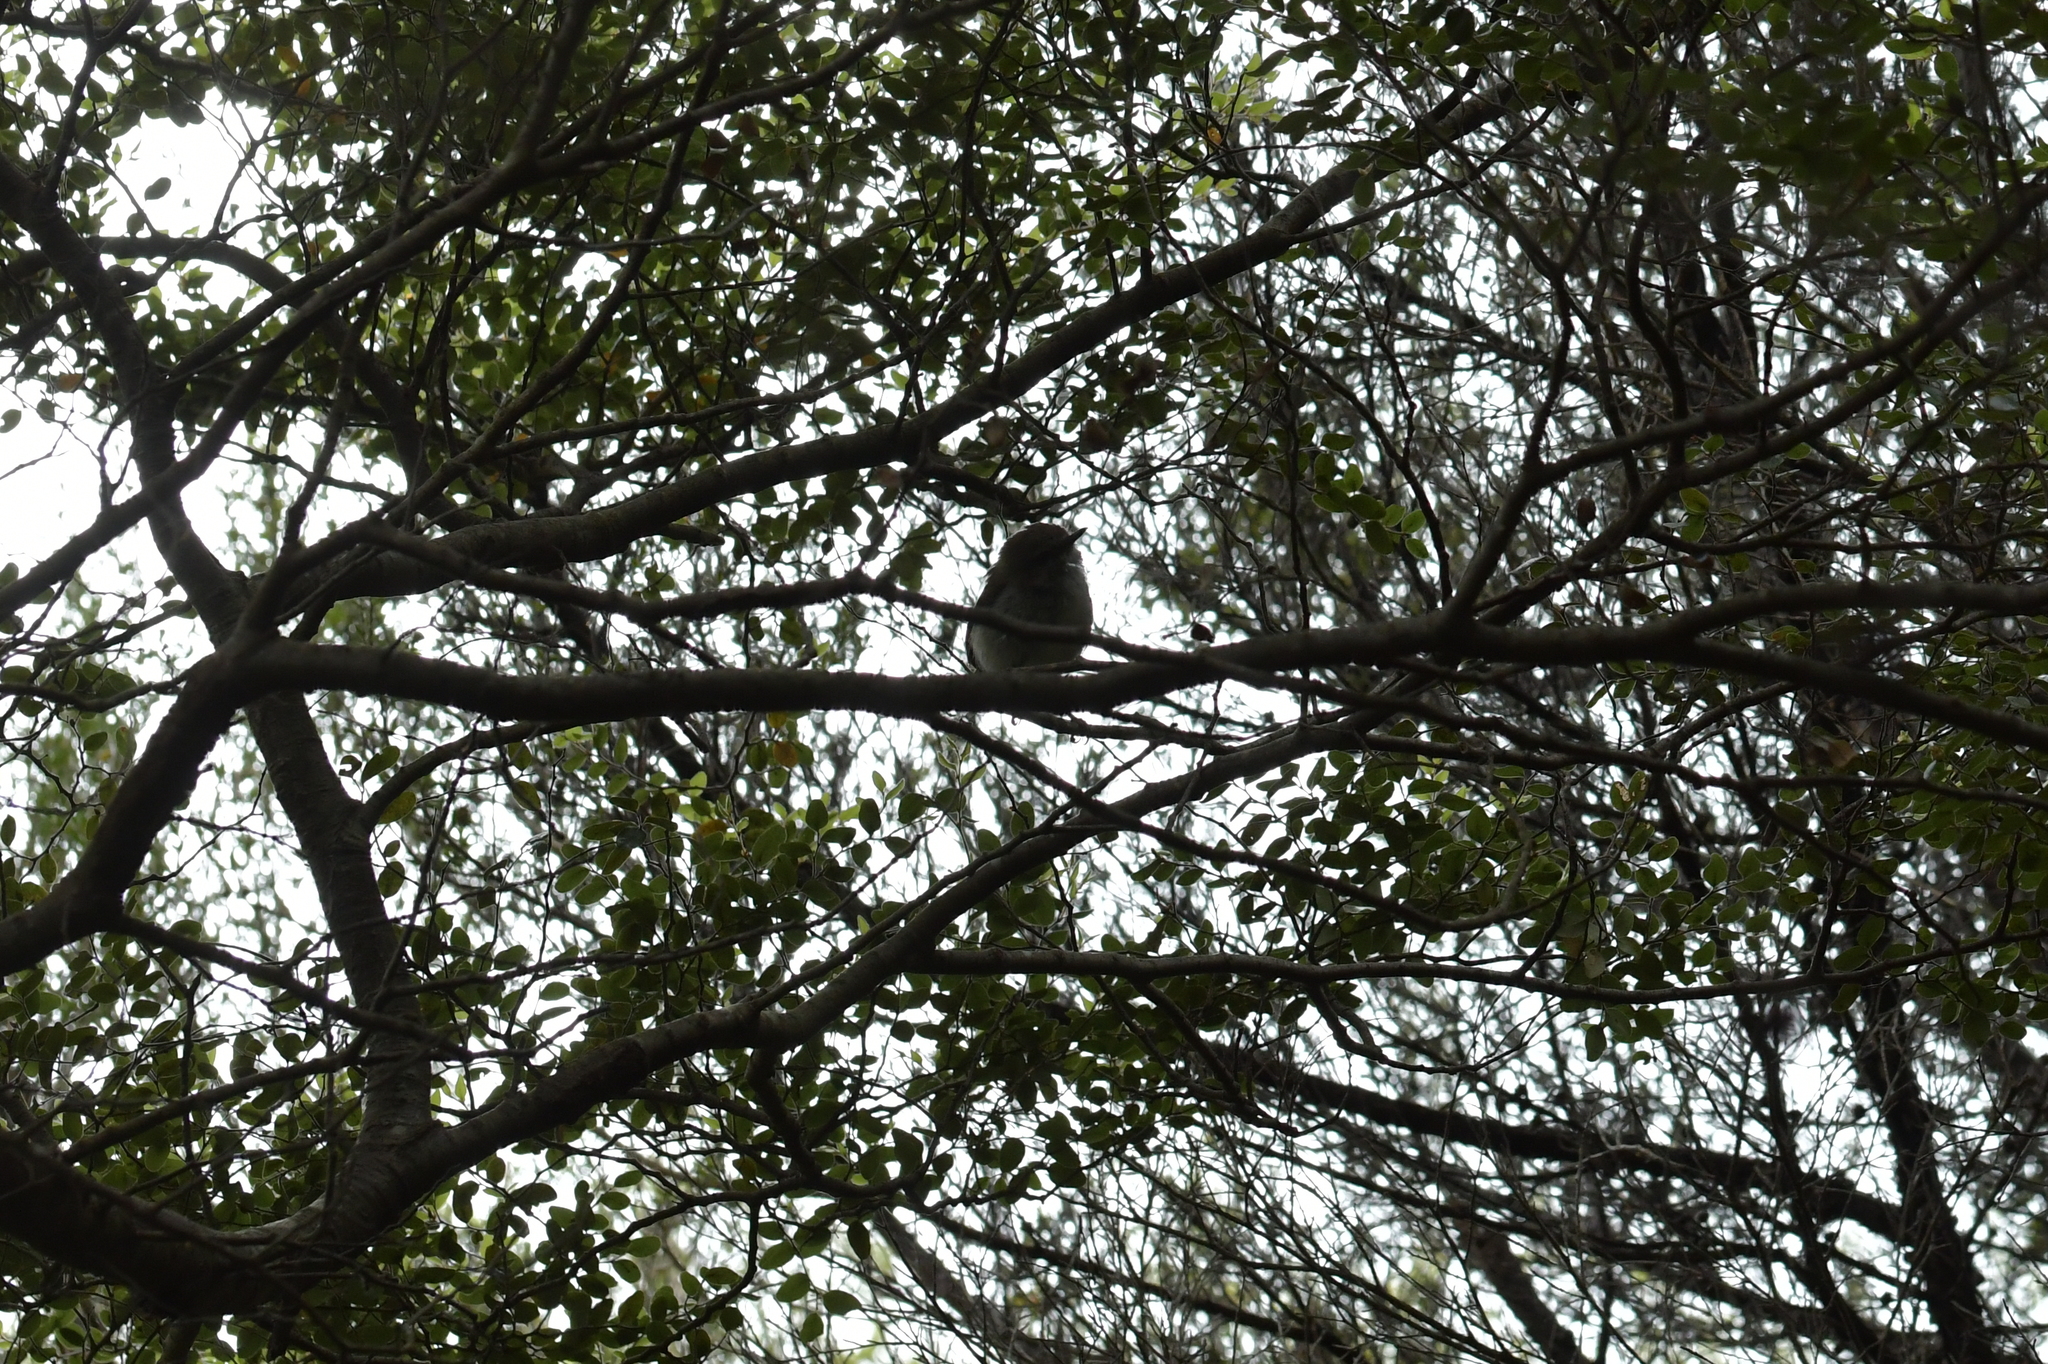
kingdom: Animalia
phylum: Chordata
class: Aves
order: Passeriformes
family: Acanthizidae
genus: Gerygone
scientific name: Gerygone igata
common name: Grey gerygone
